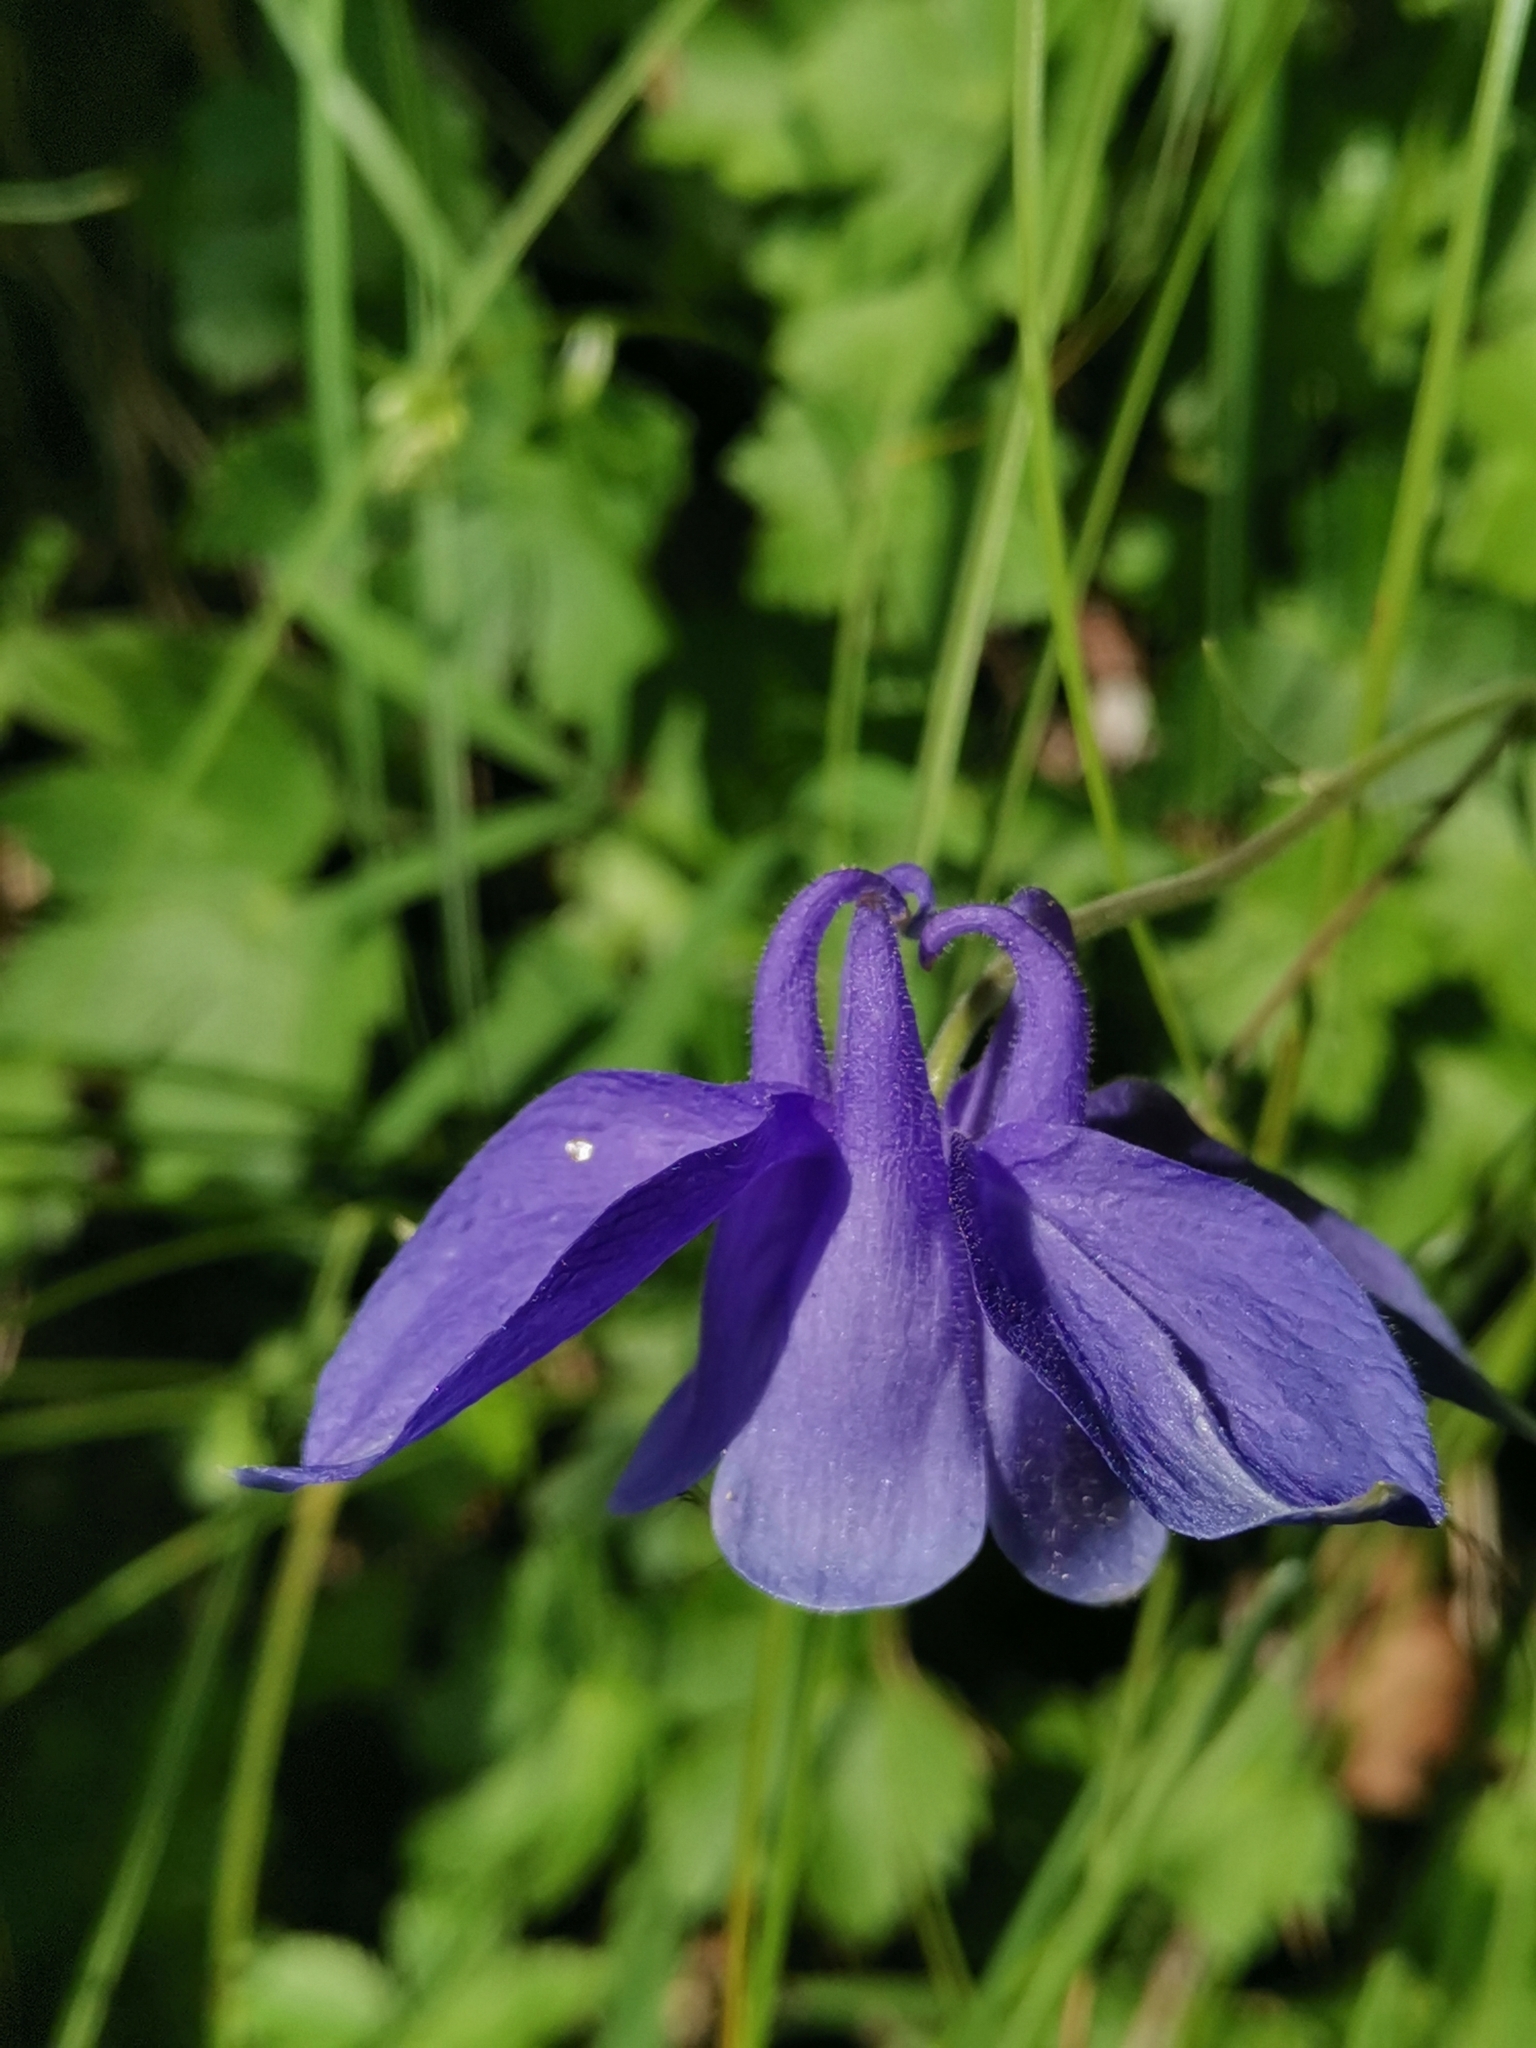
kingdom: Plantae
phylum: Tracheophyta
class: Magnoliopsida
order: Ranunculales
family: Ranunculaceae
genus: Aquilegia
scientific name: Aquilegia iulia
